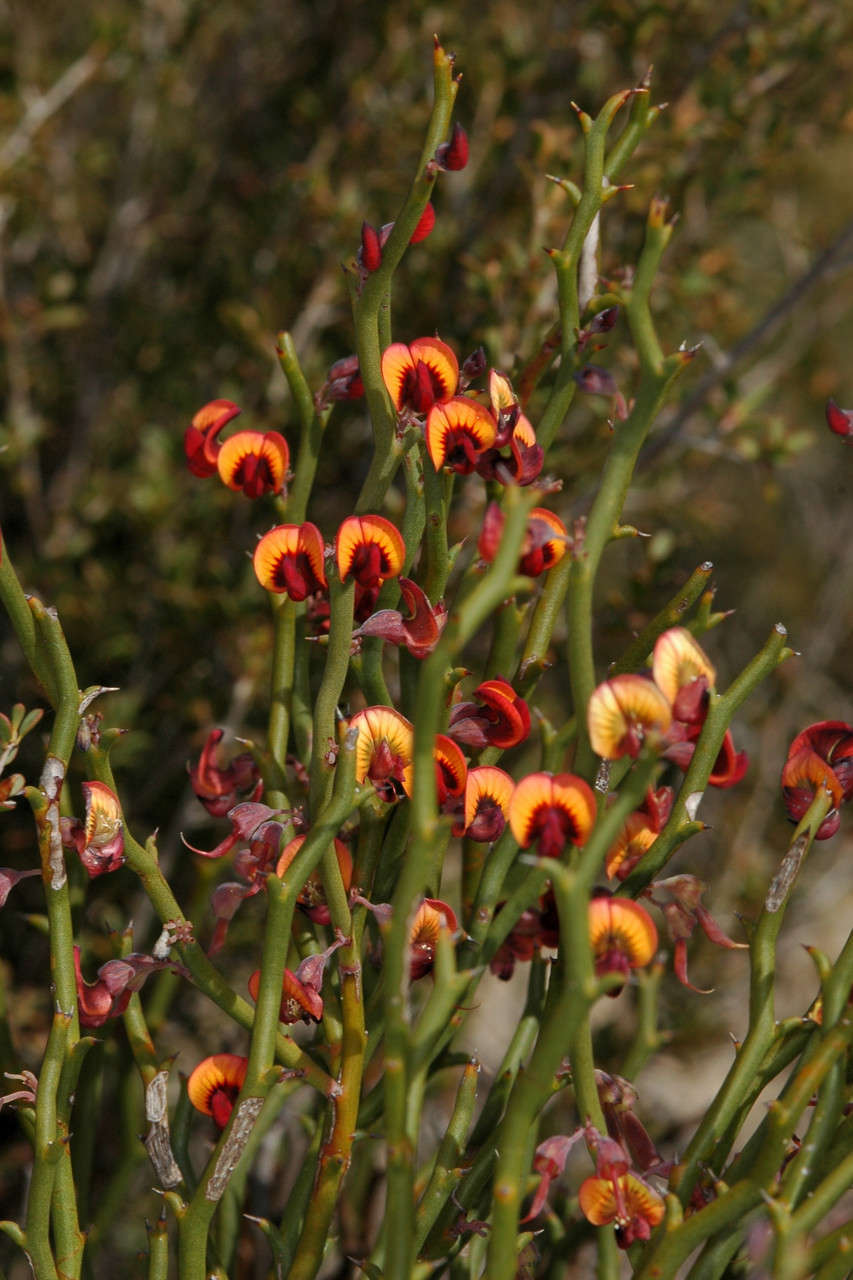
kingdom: Plantae
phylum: Tracheophyta
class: Magnoliopsida
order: Fabales
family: Fabaceae
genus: Daviesia
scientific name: Daviesia brevifolia
